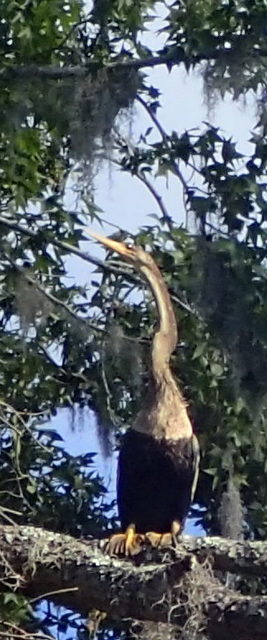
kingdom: Animalia
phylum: Chordata
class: Aves
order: Suliformes
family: Anhingidae
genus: Anhinga
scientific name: Anhinga anhinga
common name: Anhinga
